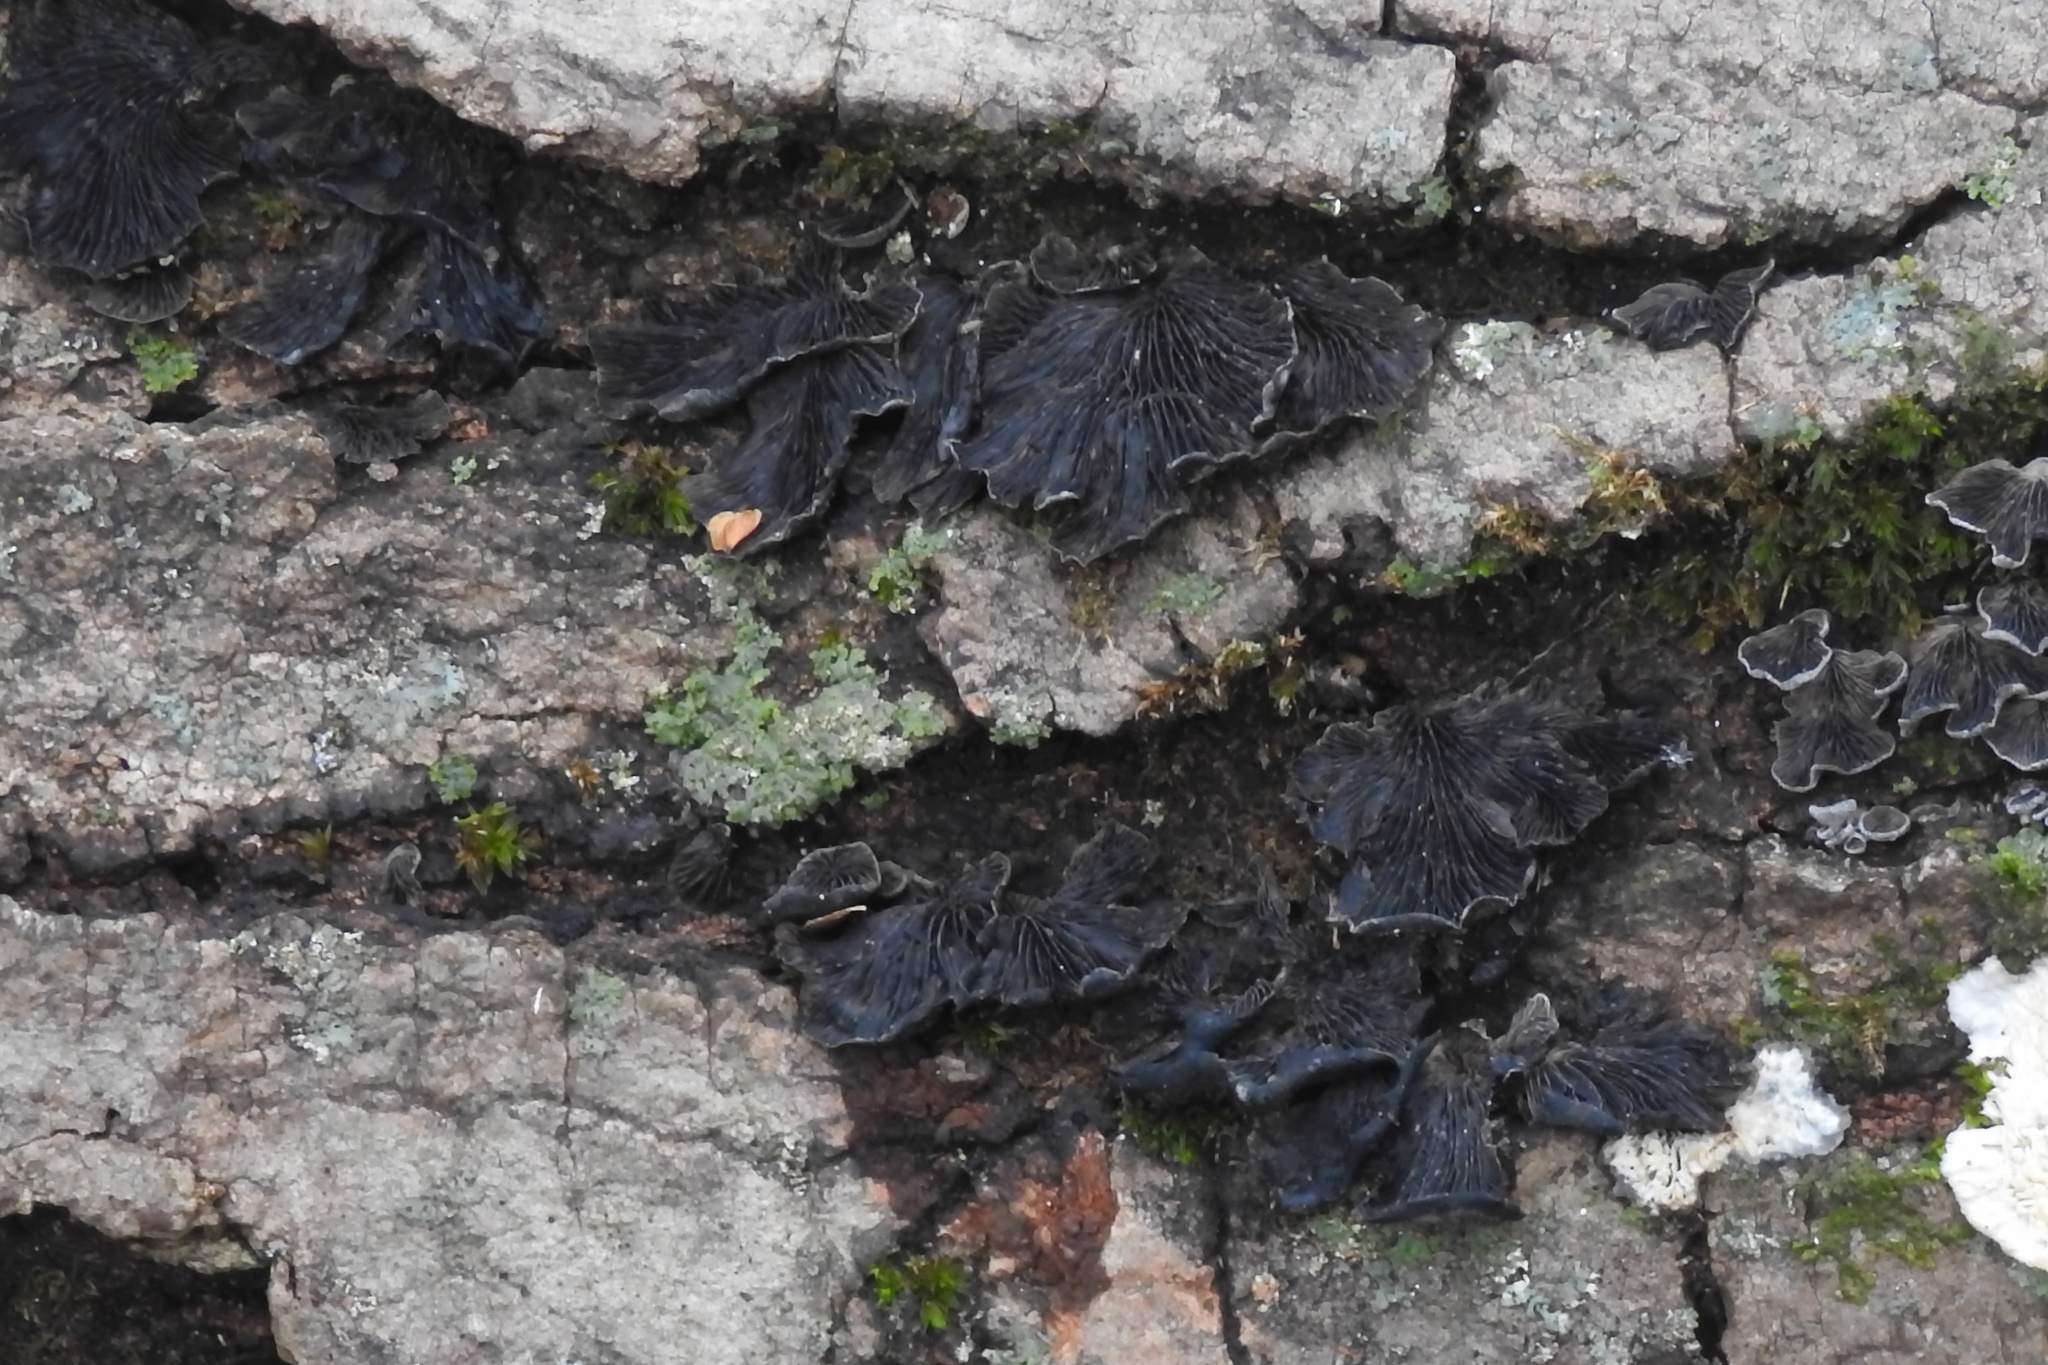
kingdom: Fungi
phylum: Basidiomycota
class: Agaricomycetes
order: Agaricales
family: Pleurotaceae
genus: Resupinatus
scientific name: Resupinatus alboniger
